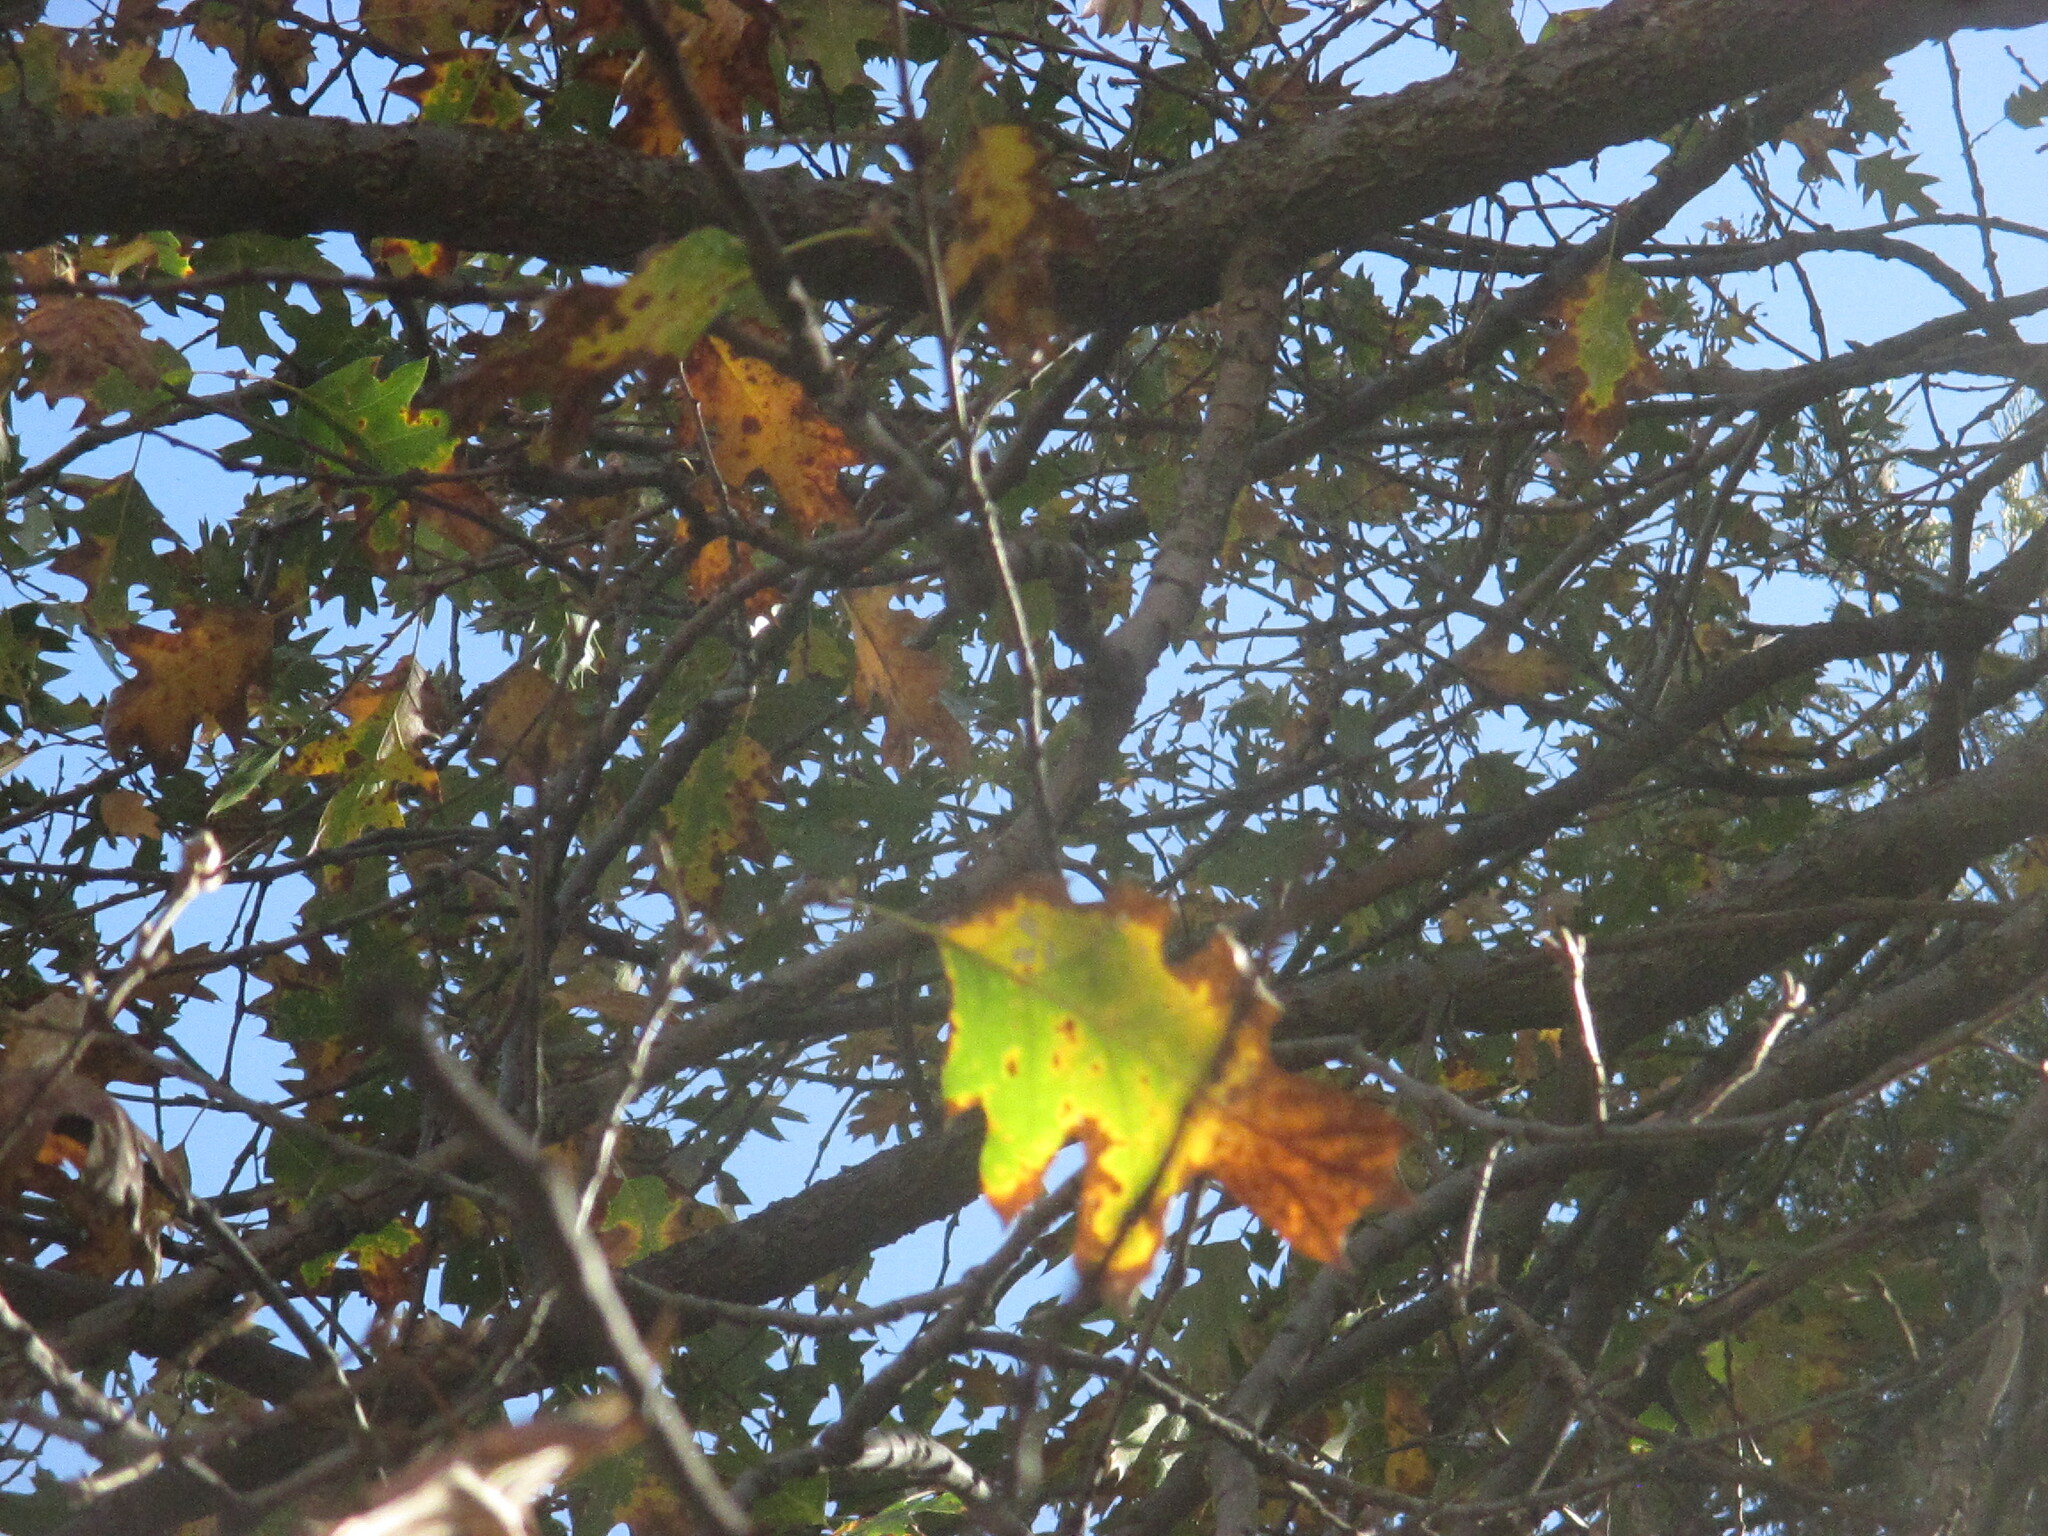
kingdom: Plantae
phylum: Tracheophyta
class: Magnoliopsida
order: Fagales
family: Fagaceae
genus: Quercus
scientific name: Quercus kelloggii
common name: California black oak
